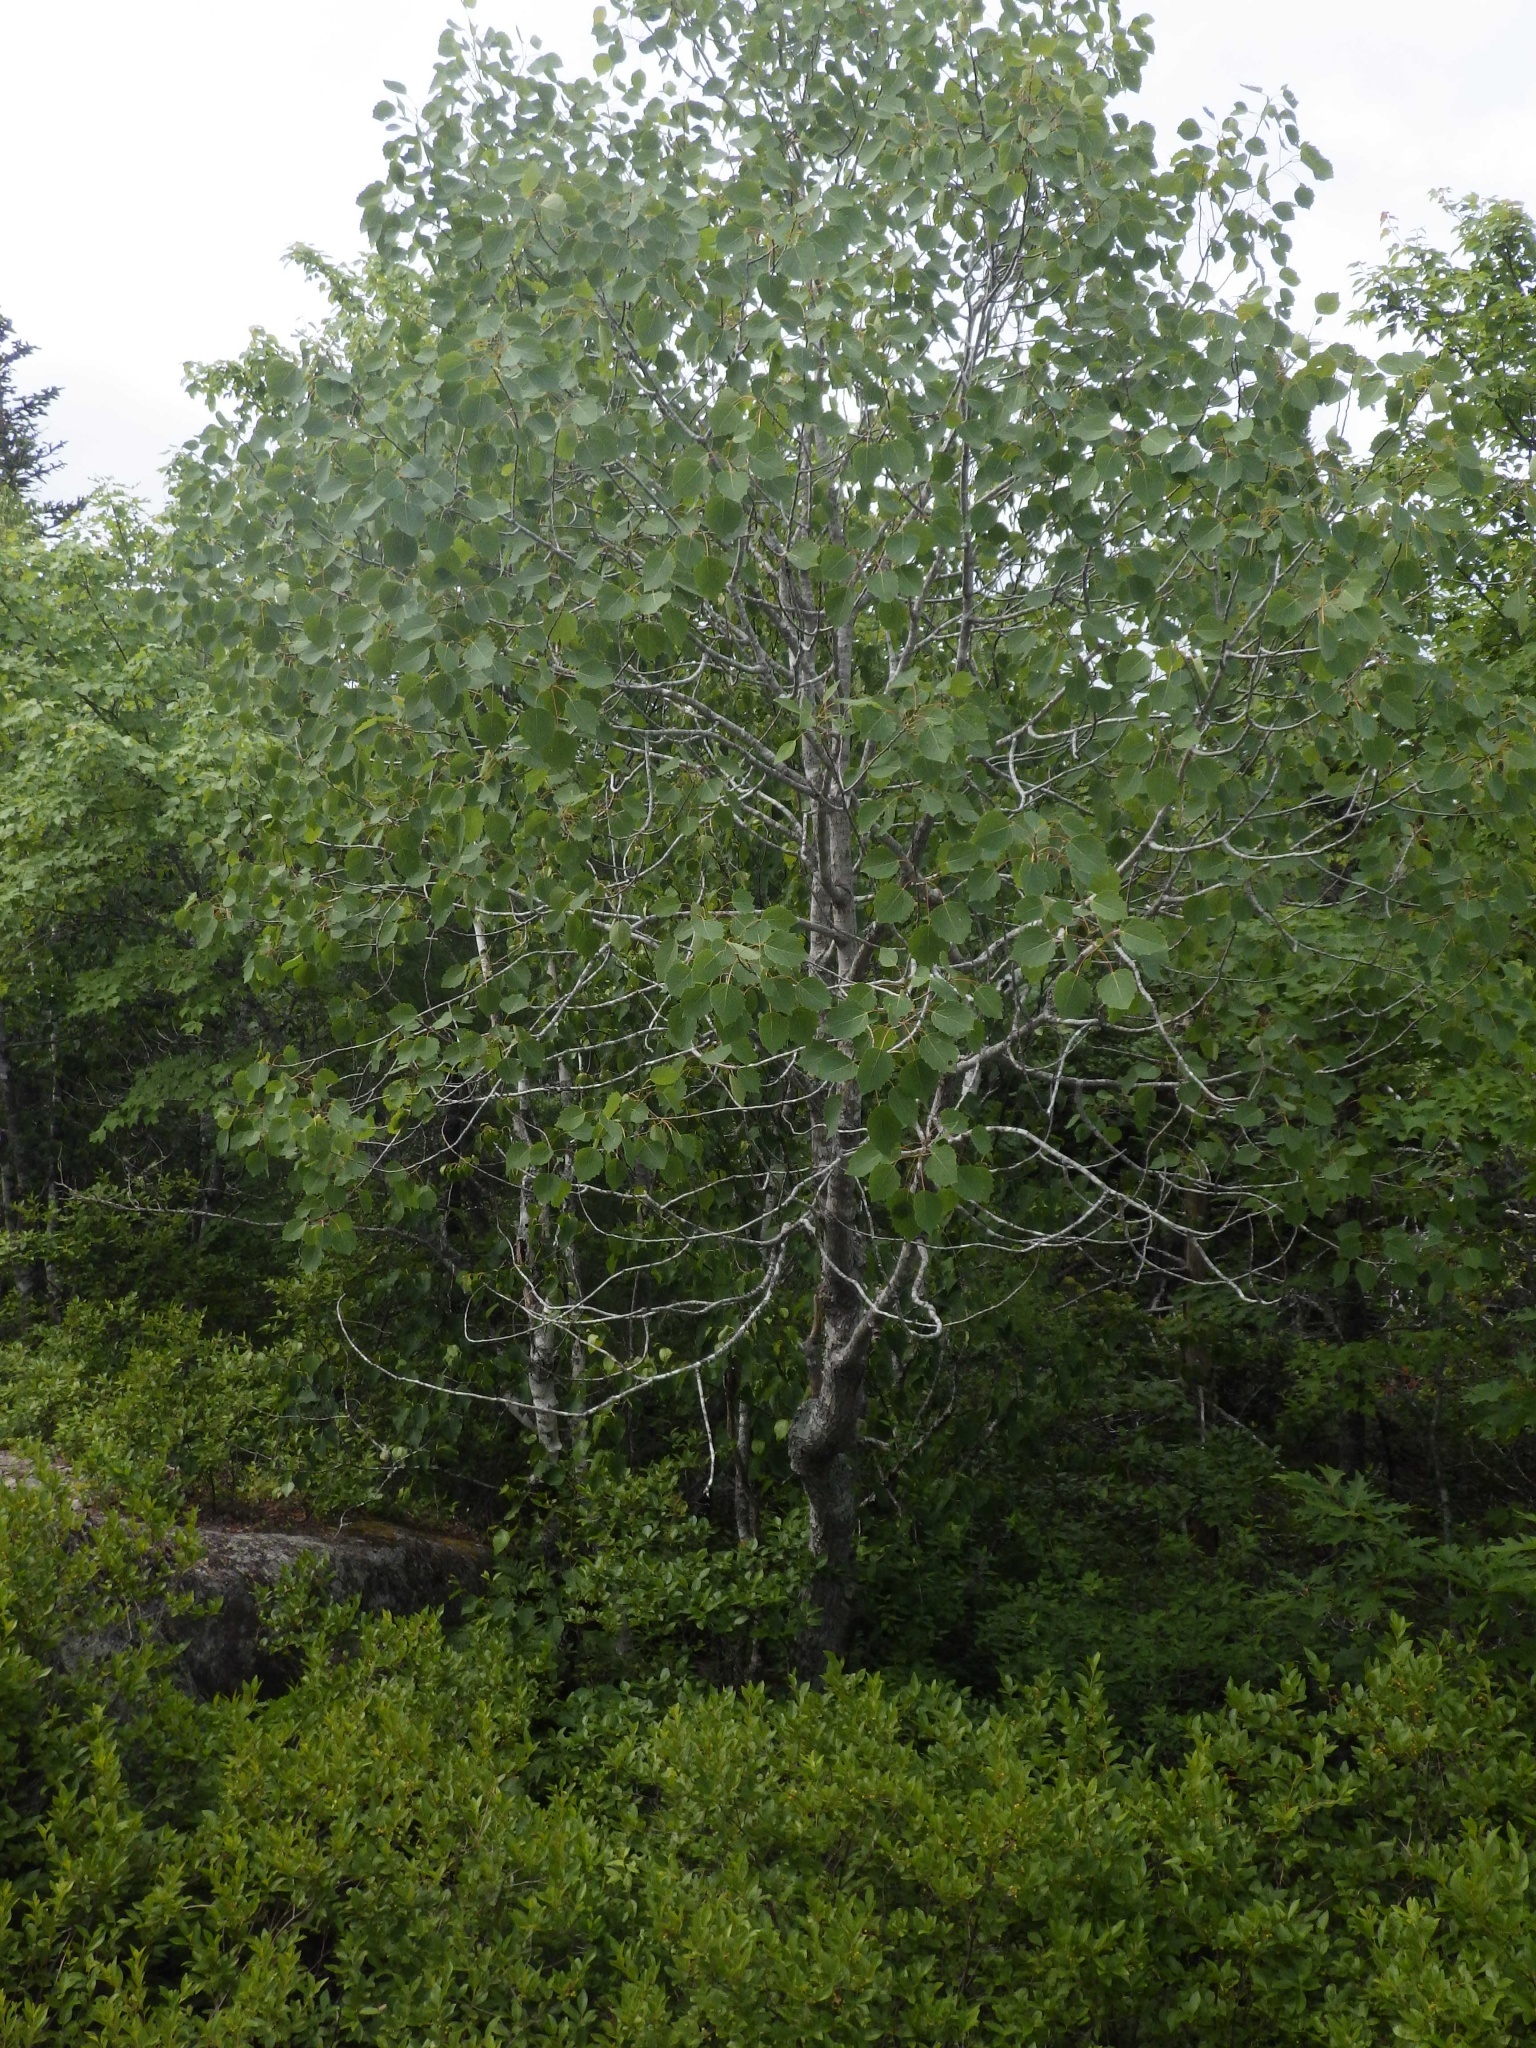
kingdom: Plantae
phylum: Tracheophyta
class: Magnoliopsida
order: Malpighiales
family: Salicaceae
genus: Populus
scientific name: Populus grandidentata
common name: Bigtooth aspen
